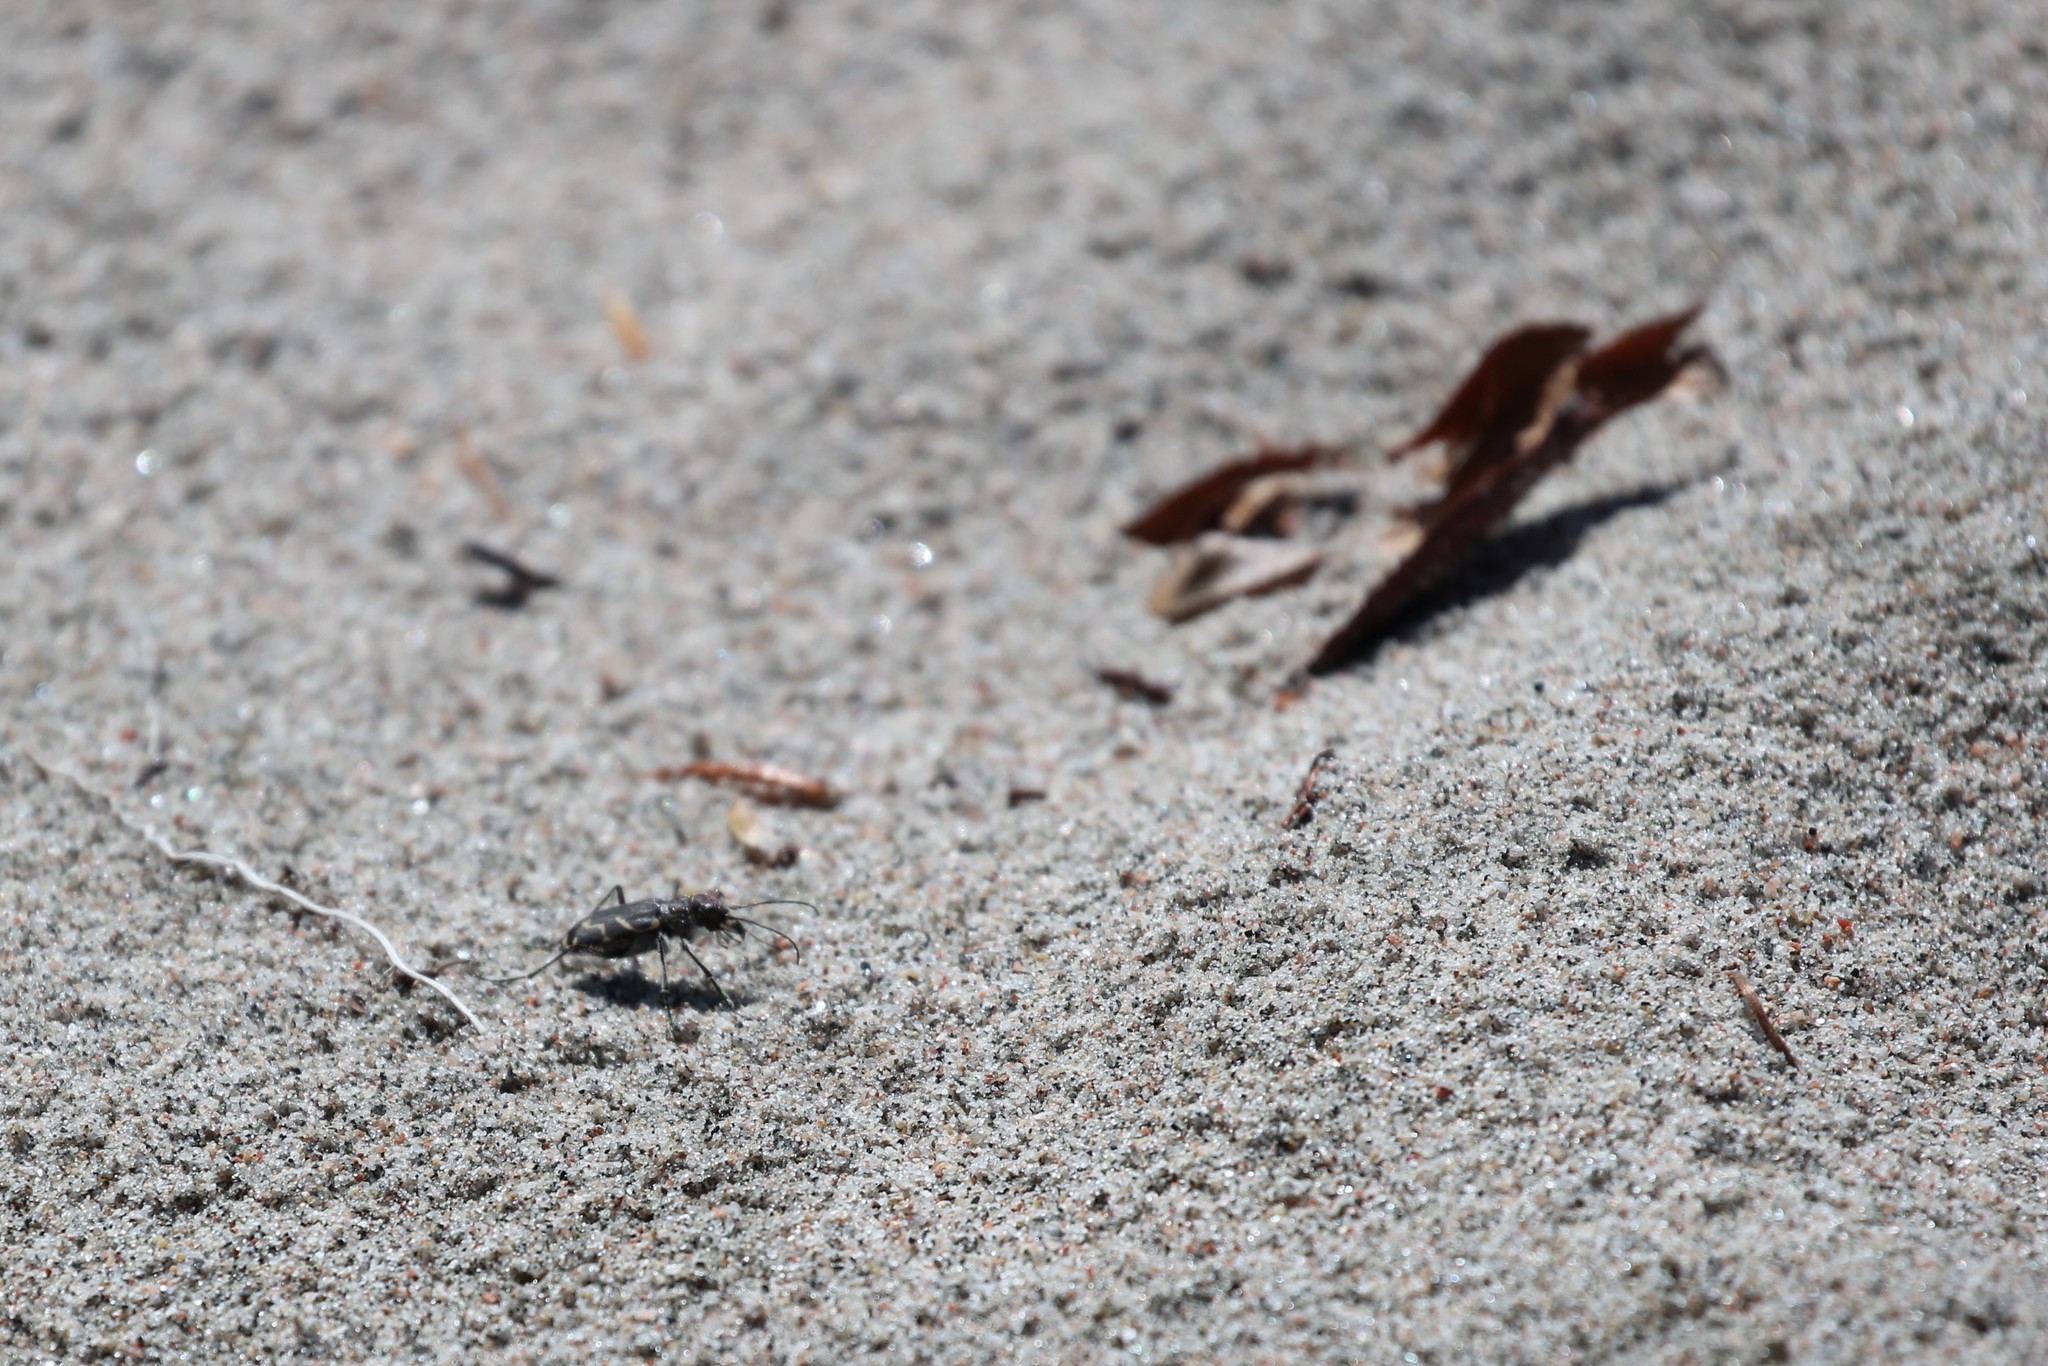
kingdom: Animalia
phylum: Arthropoda
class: Insecta
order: Coleoptera
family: Carabidae
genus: Cicindela
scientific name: Cicindela tranquebarica
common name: Oblique-lined tiger beetle
